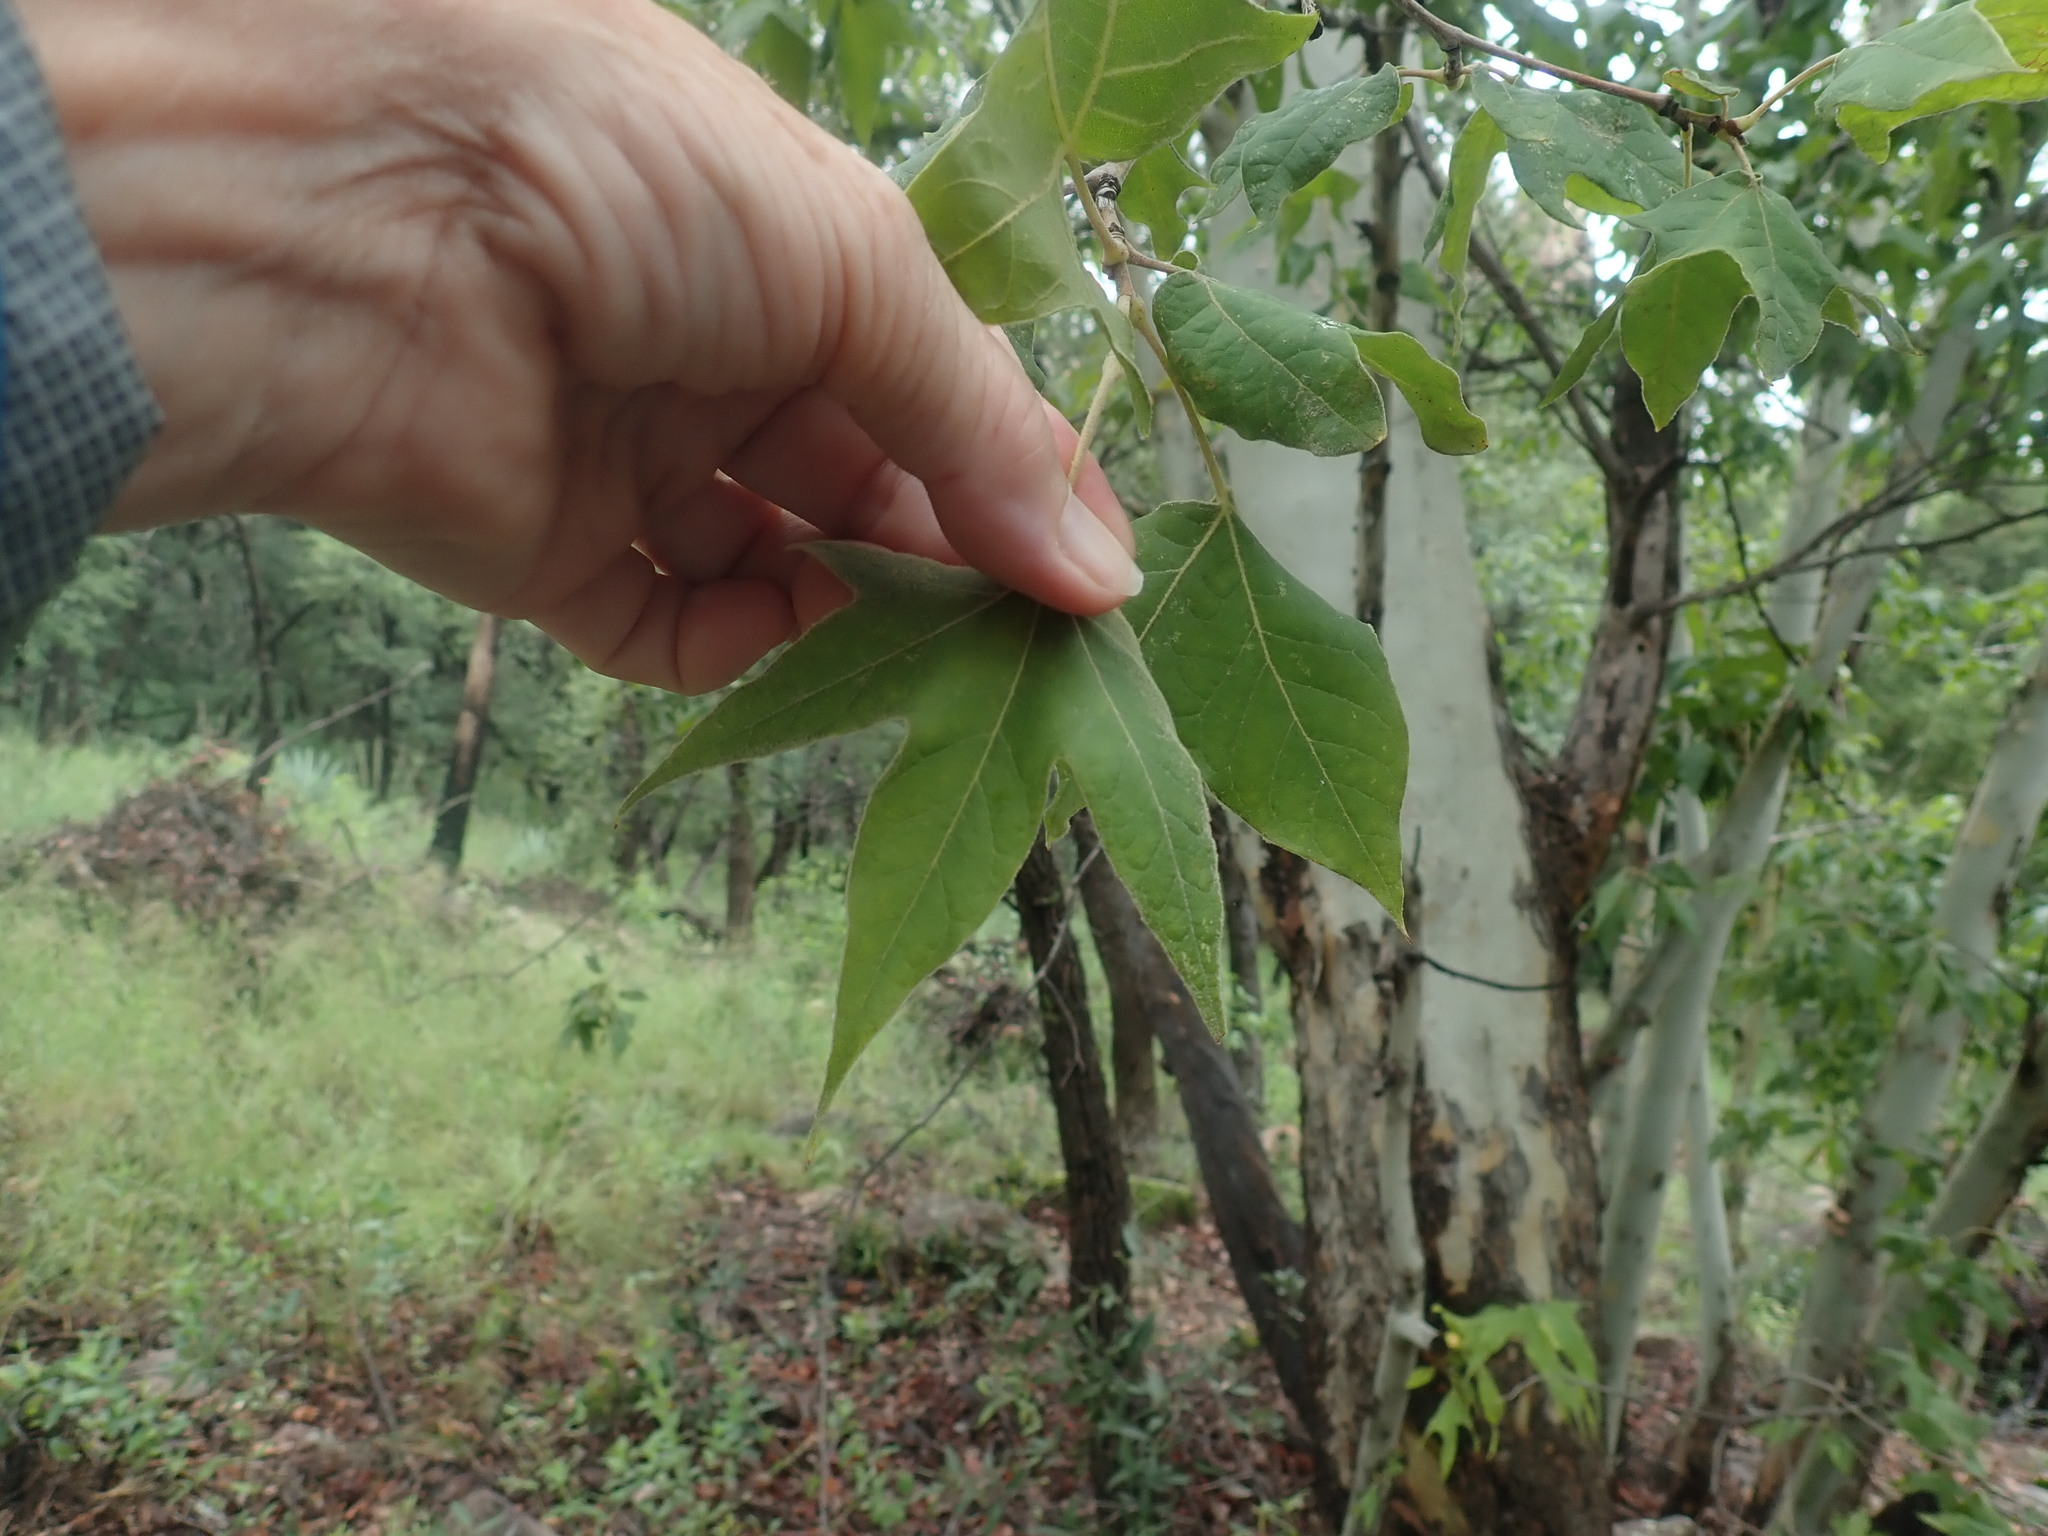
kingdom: Plantae
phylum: Tracheophyta
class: Magnoliopsida
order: Proteales
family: Platanaceae
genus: Platanus
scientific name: Platanus wrightii
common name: Arizona sycamore
